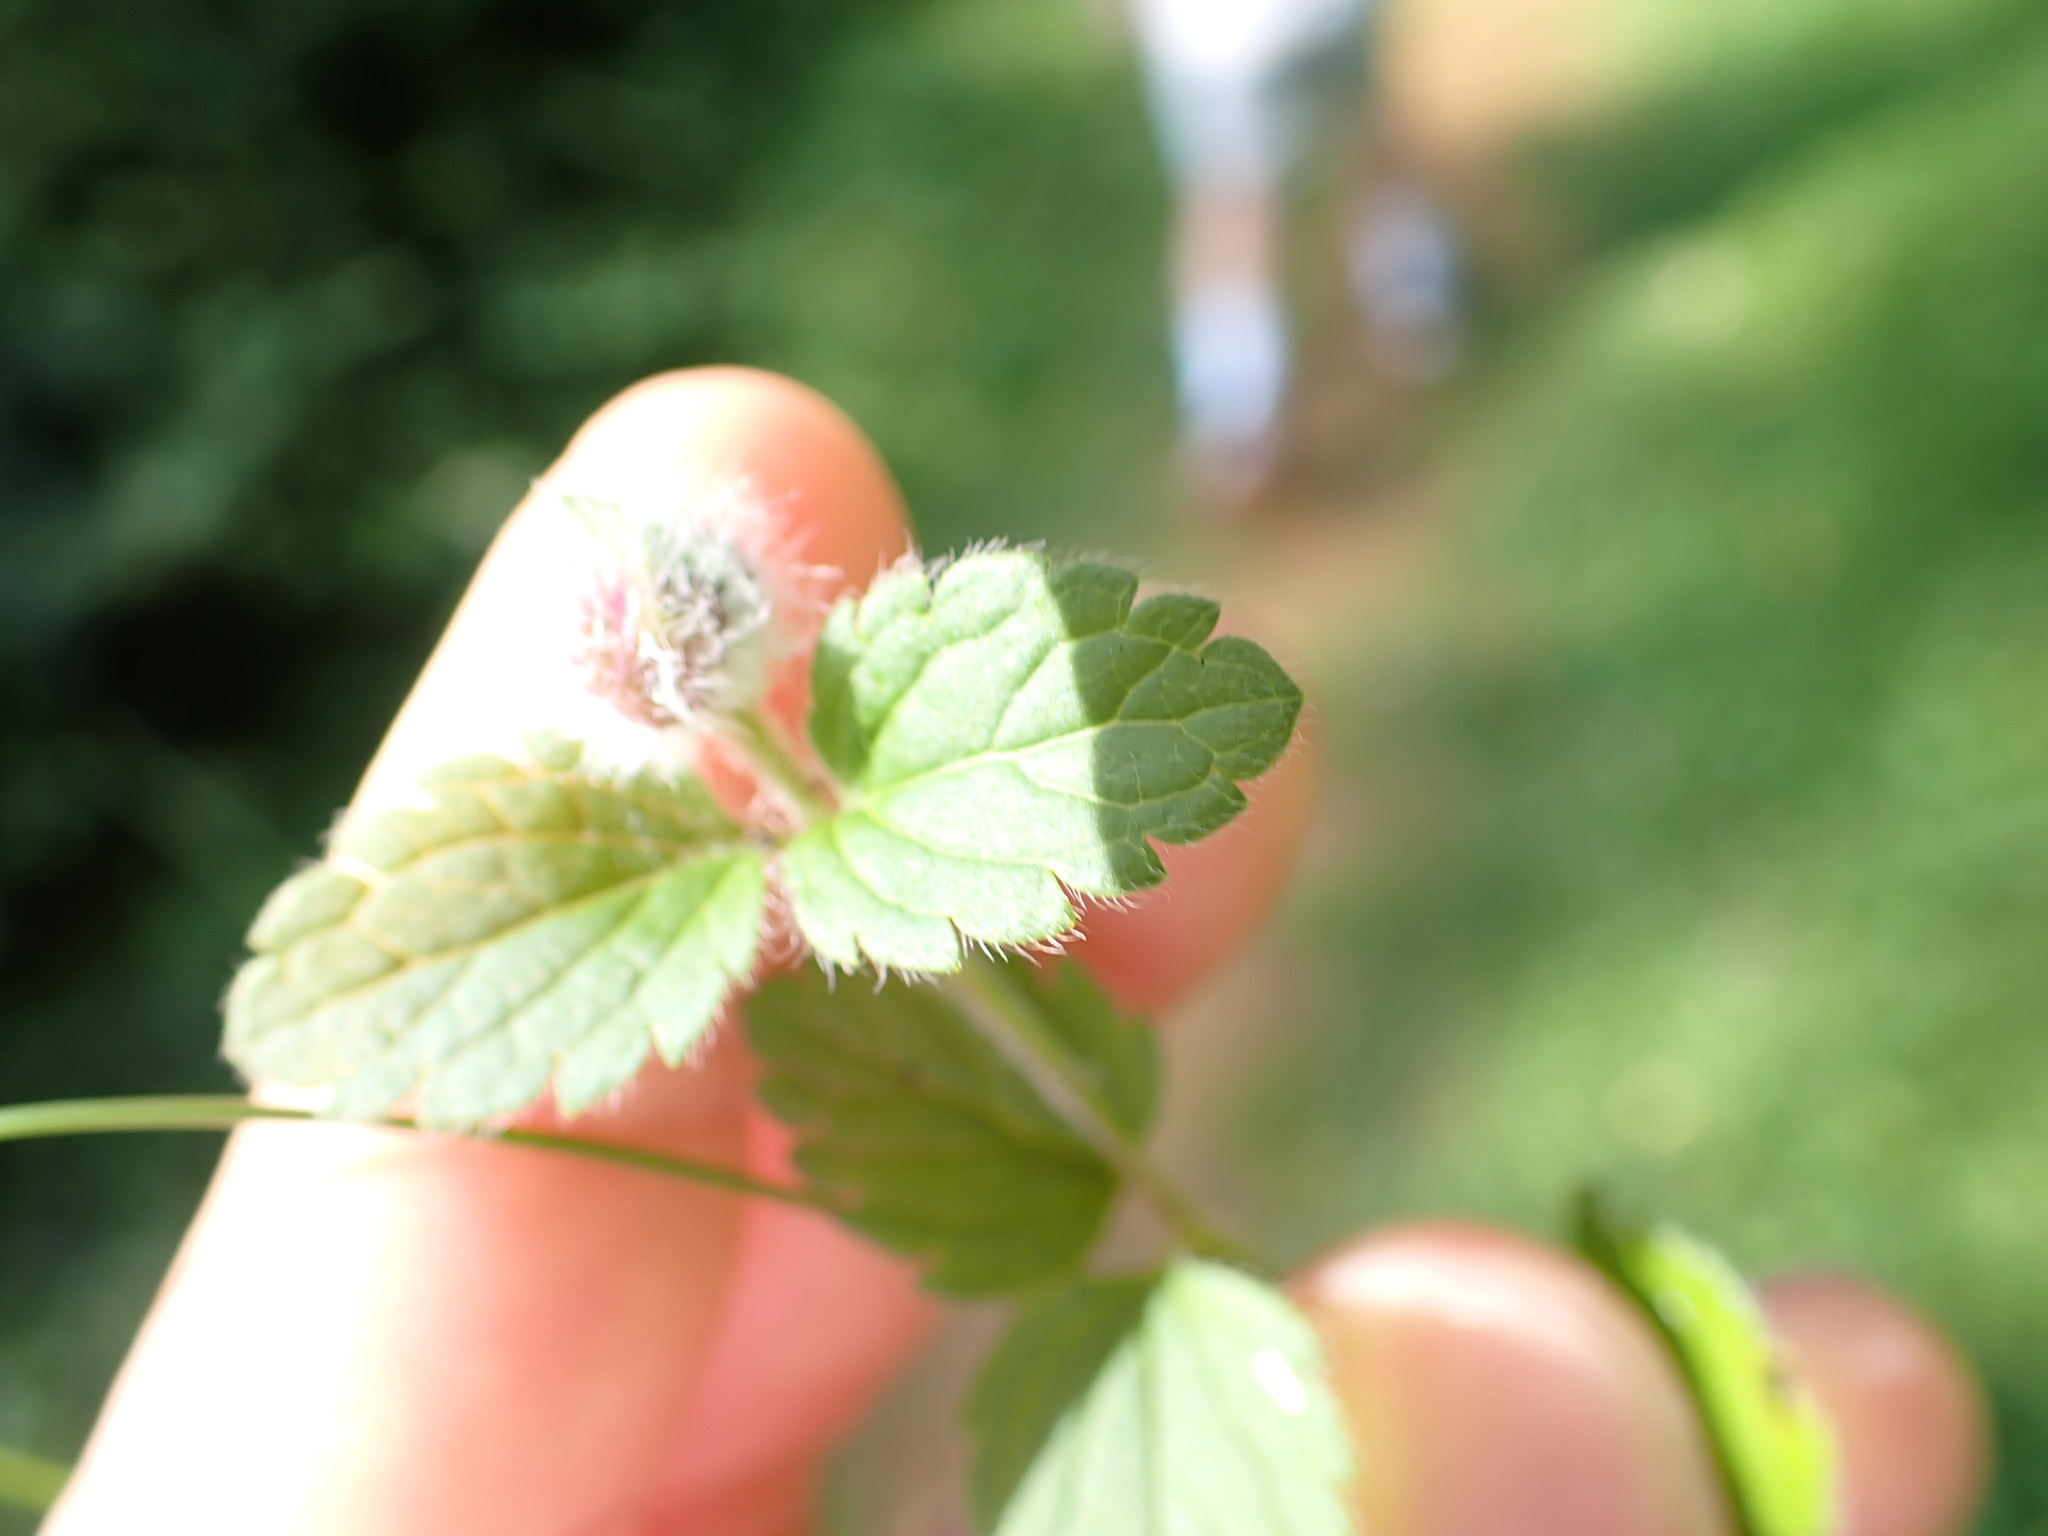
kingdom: Plantae
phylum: Tracheophyta
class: Magnoliopsida
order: Lamiales
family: Plantaginaceae
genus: Veronica
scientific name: Veronica chamaedrys
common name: Germander speedwell
